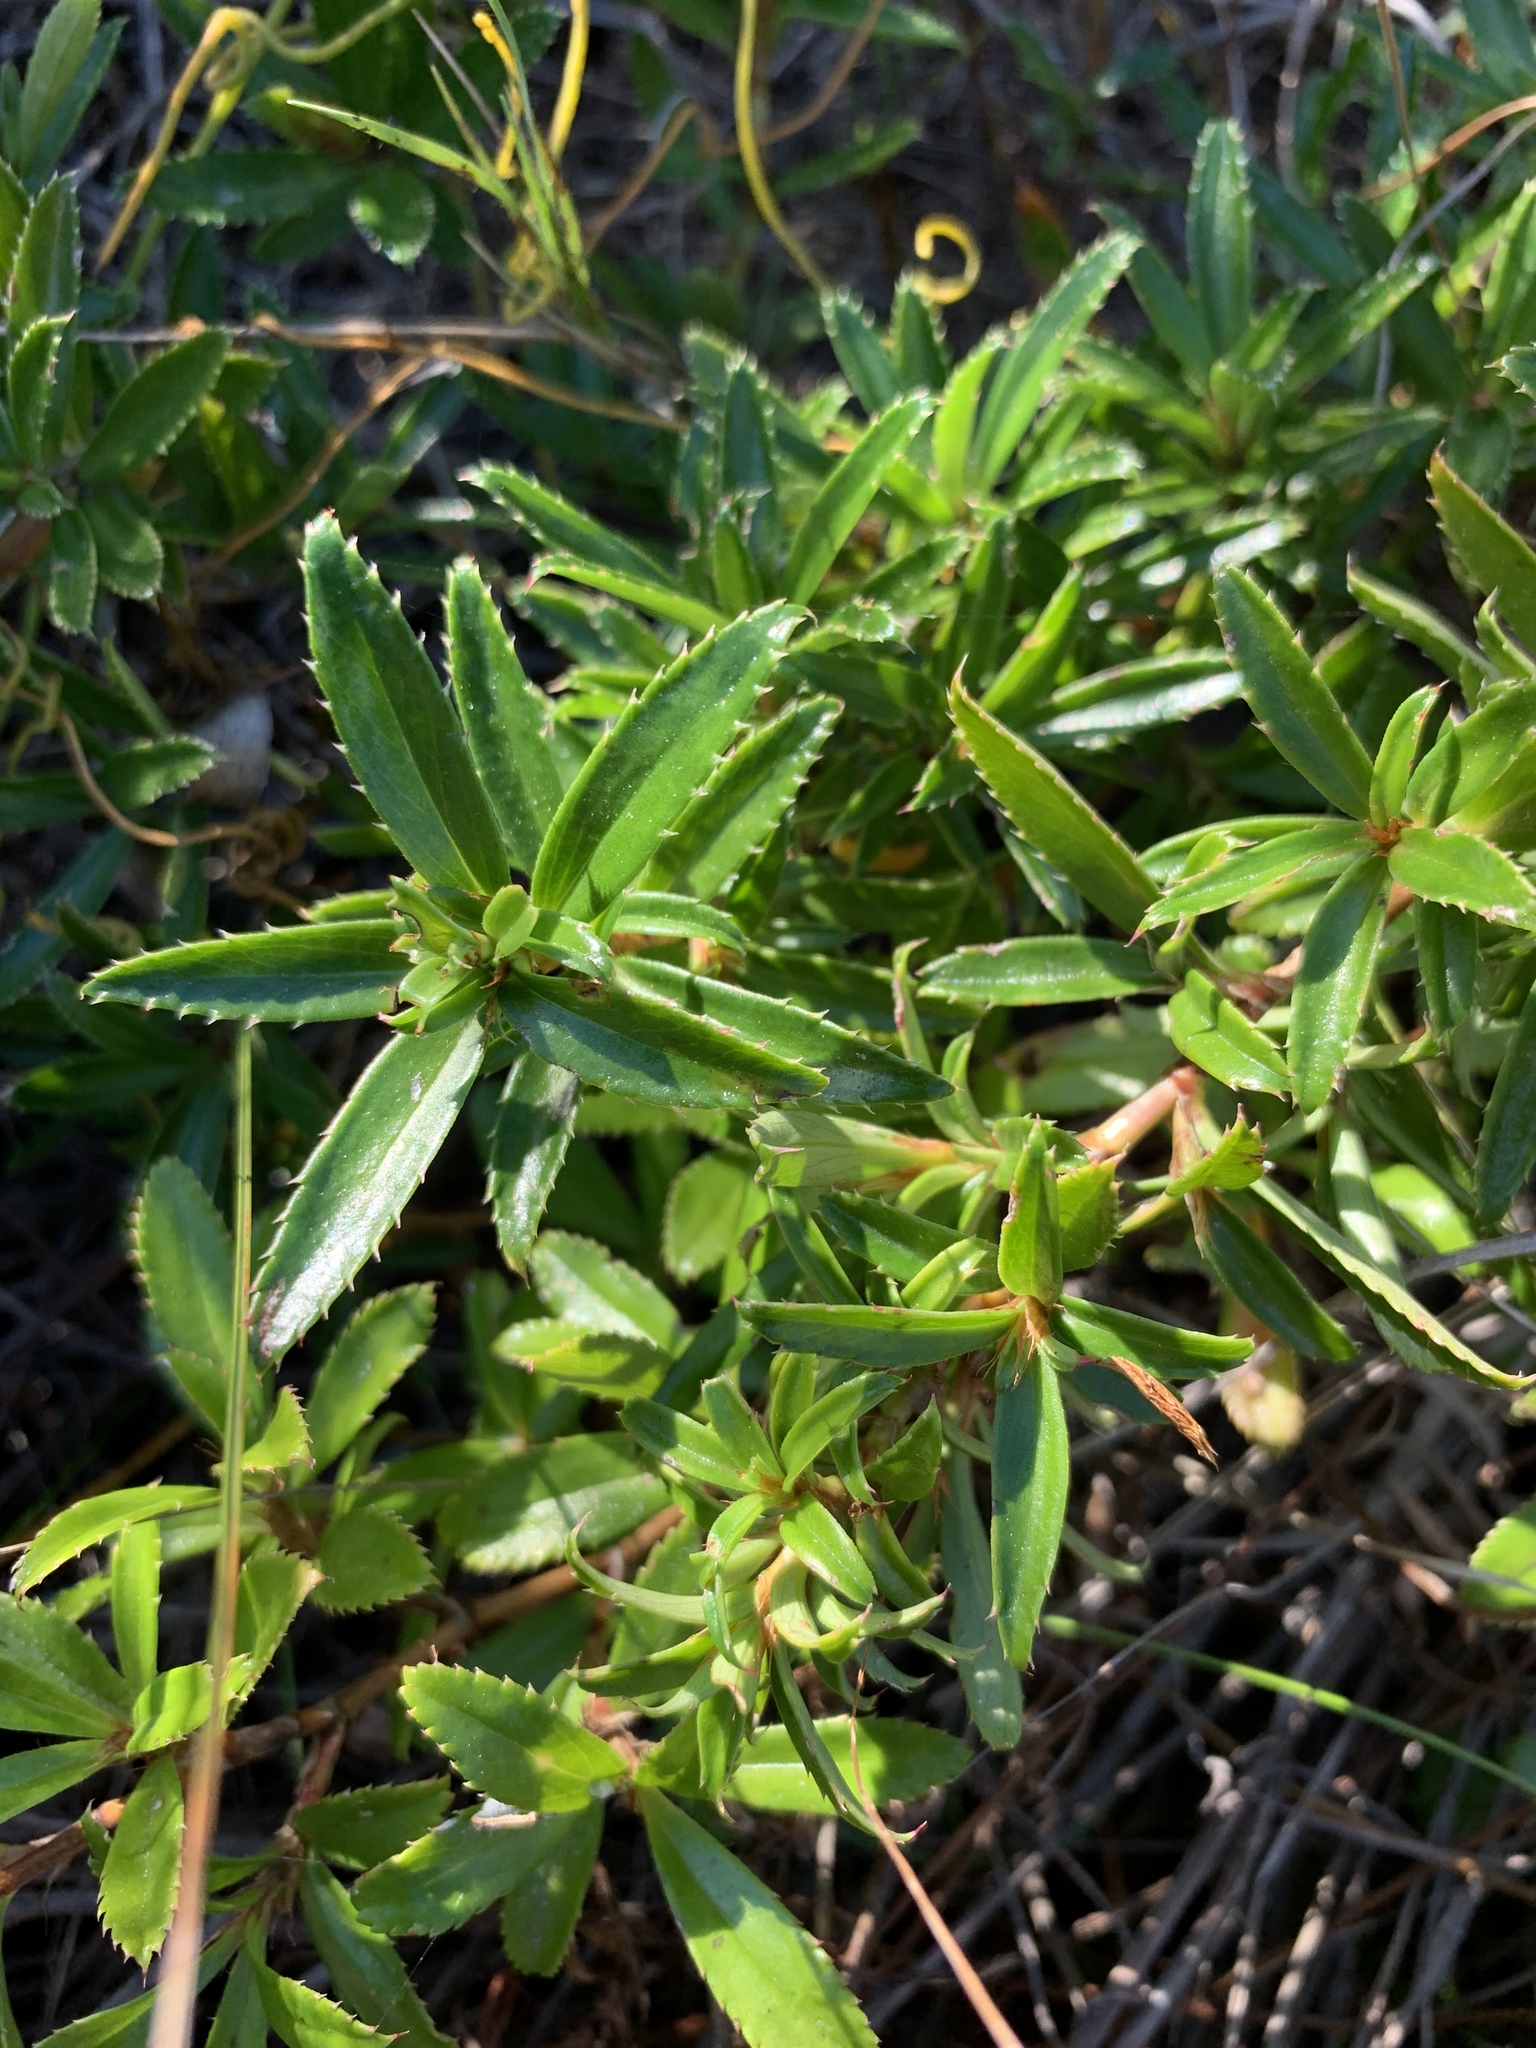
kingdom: Plantae
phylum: Tracheophyta
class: Magnoliopsida
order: Rosales
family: Rosaceae
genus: Cliffortia
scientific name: Cliffortia ferruginea
